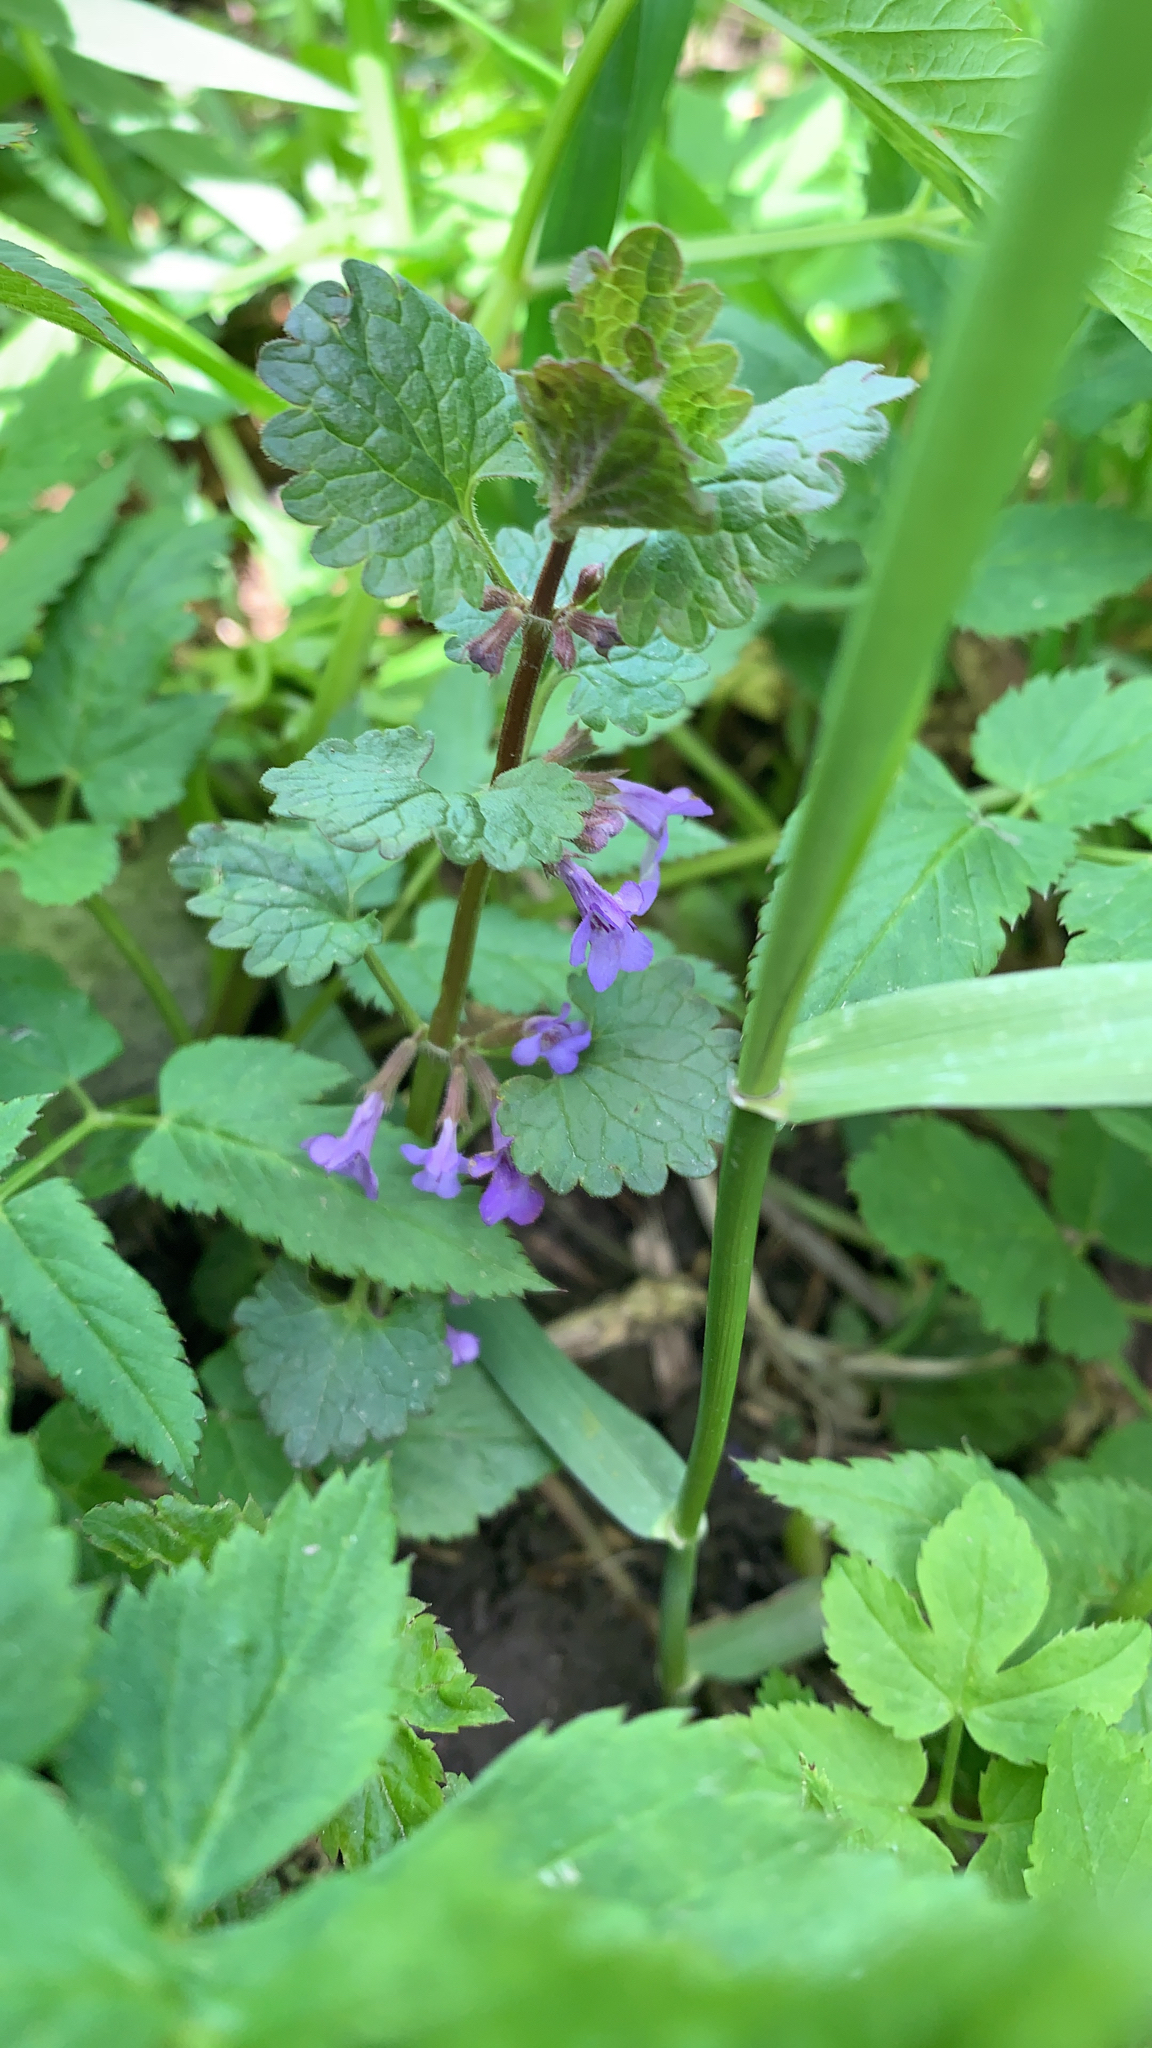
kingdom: Plantae
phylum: Tracheophyta
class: Magnoliopsida
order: Lamiales
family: Lamiaceae
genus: Glechoma
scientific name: Glechoma hederacea
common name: Ground ivy
